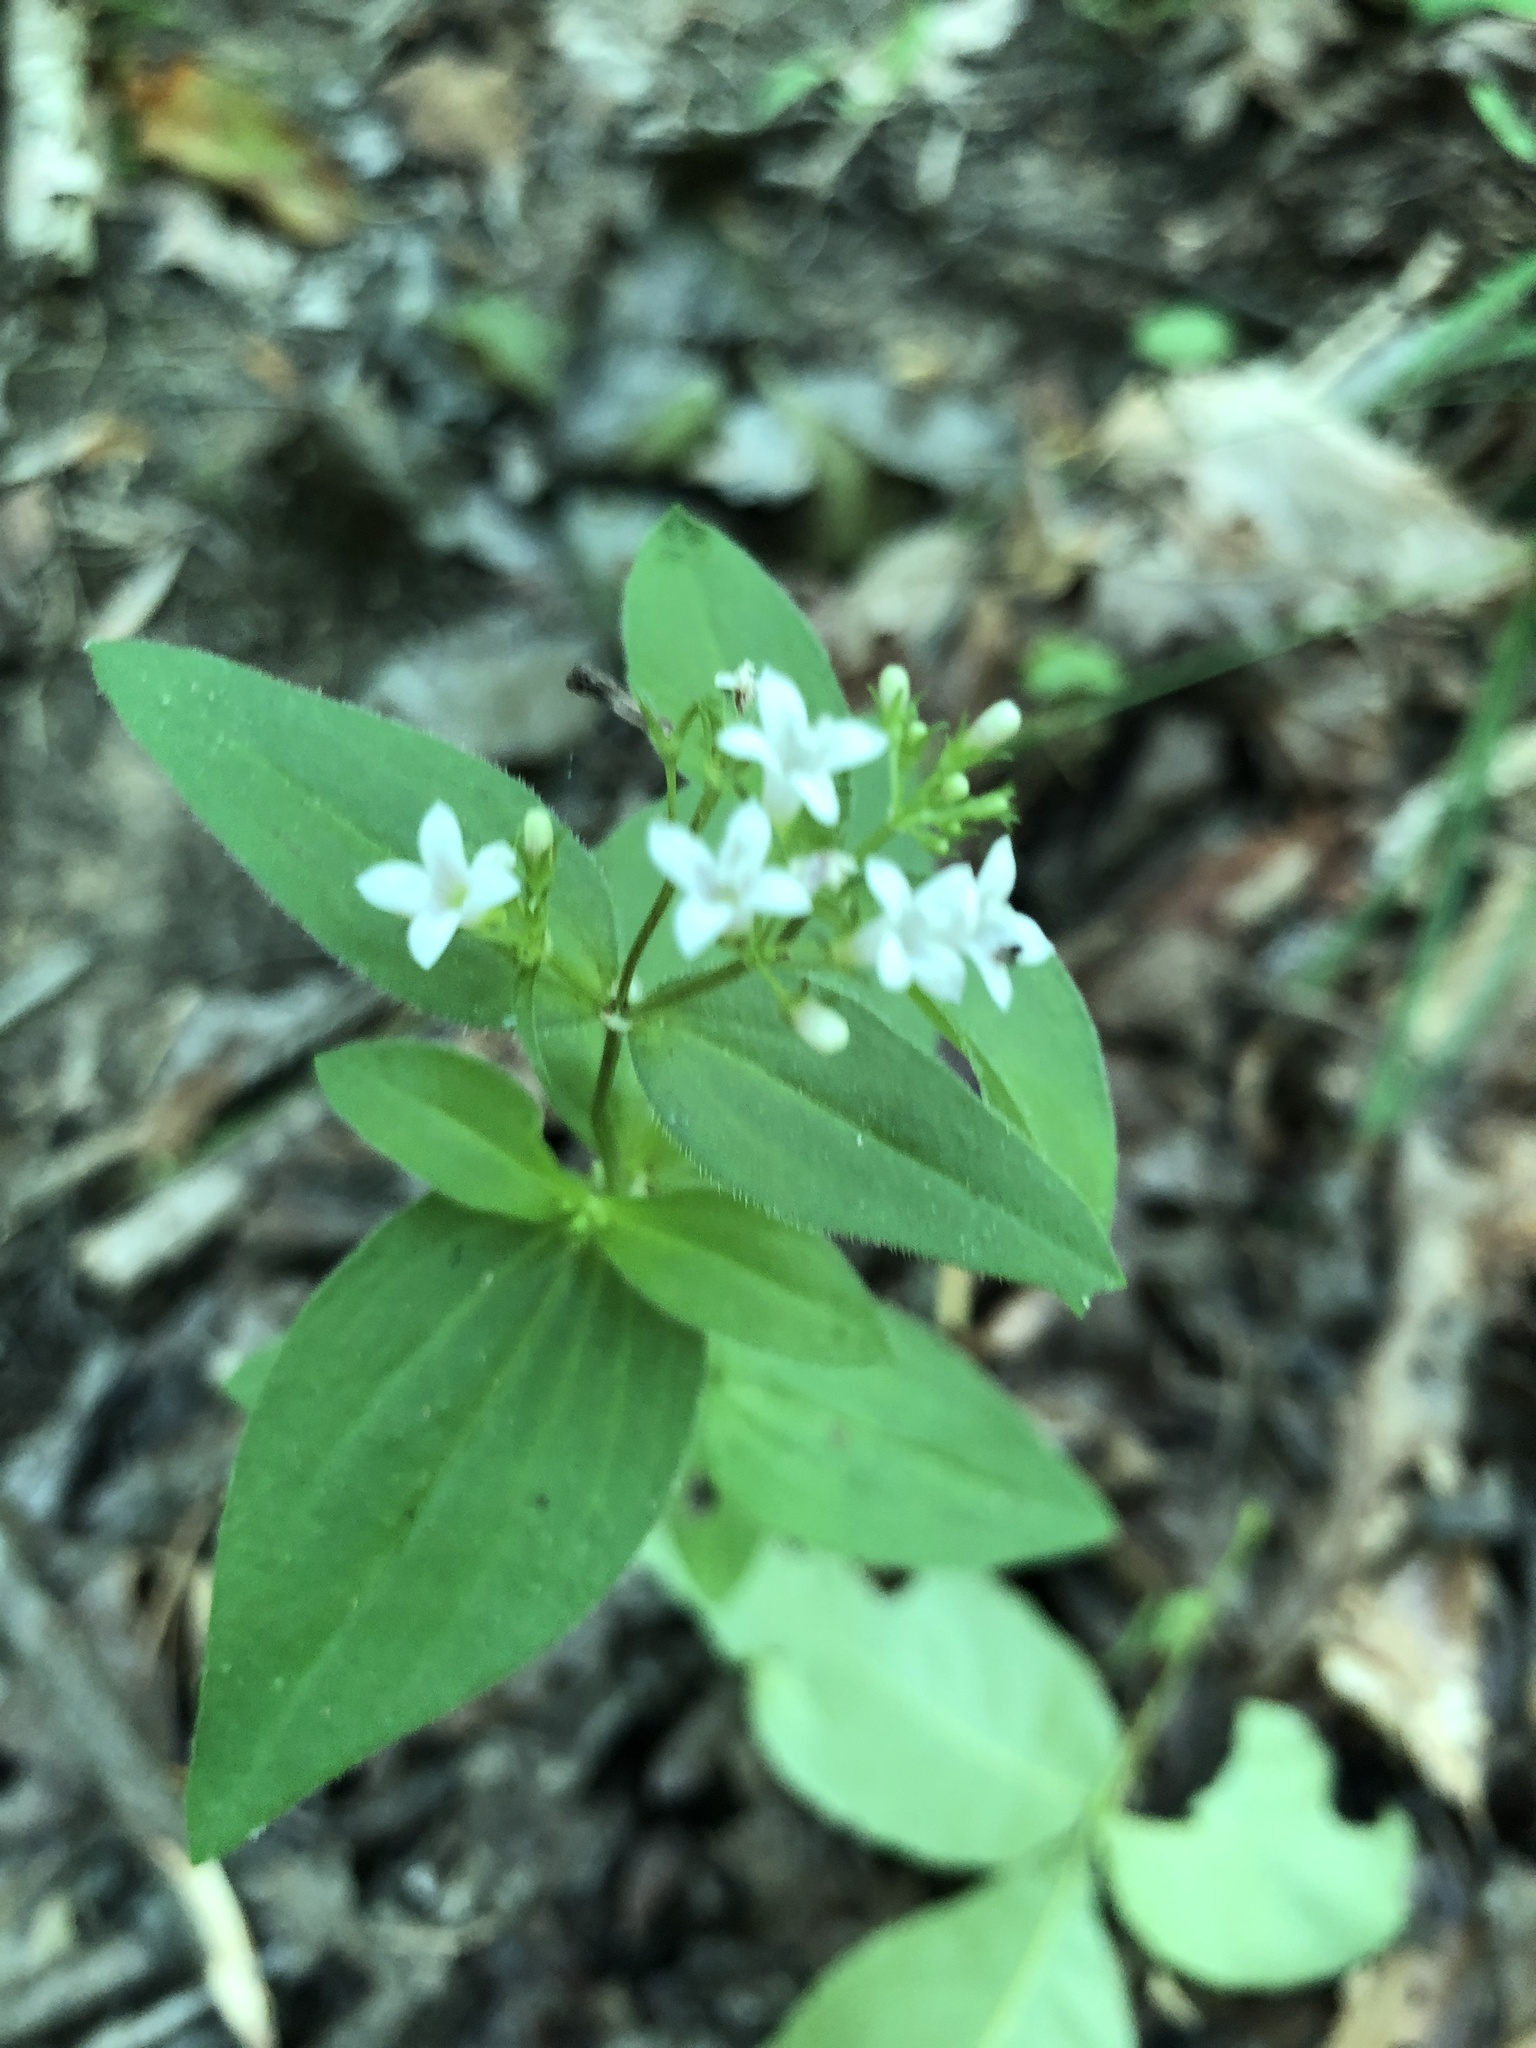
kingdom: Plantae
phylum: Tracheophyta
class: Magnoliopsida
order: Gentianales
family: Rubiaceae
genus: Houstonia
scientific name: Houstonia purpurea
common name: Summer bluet
